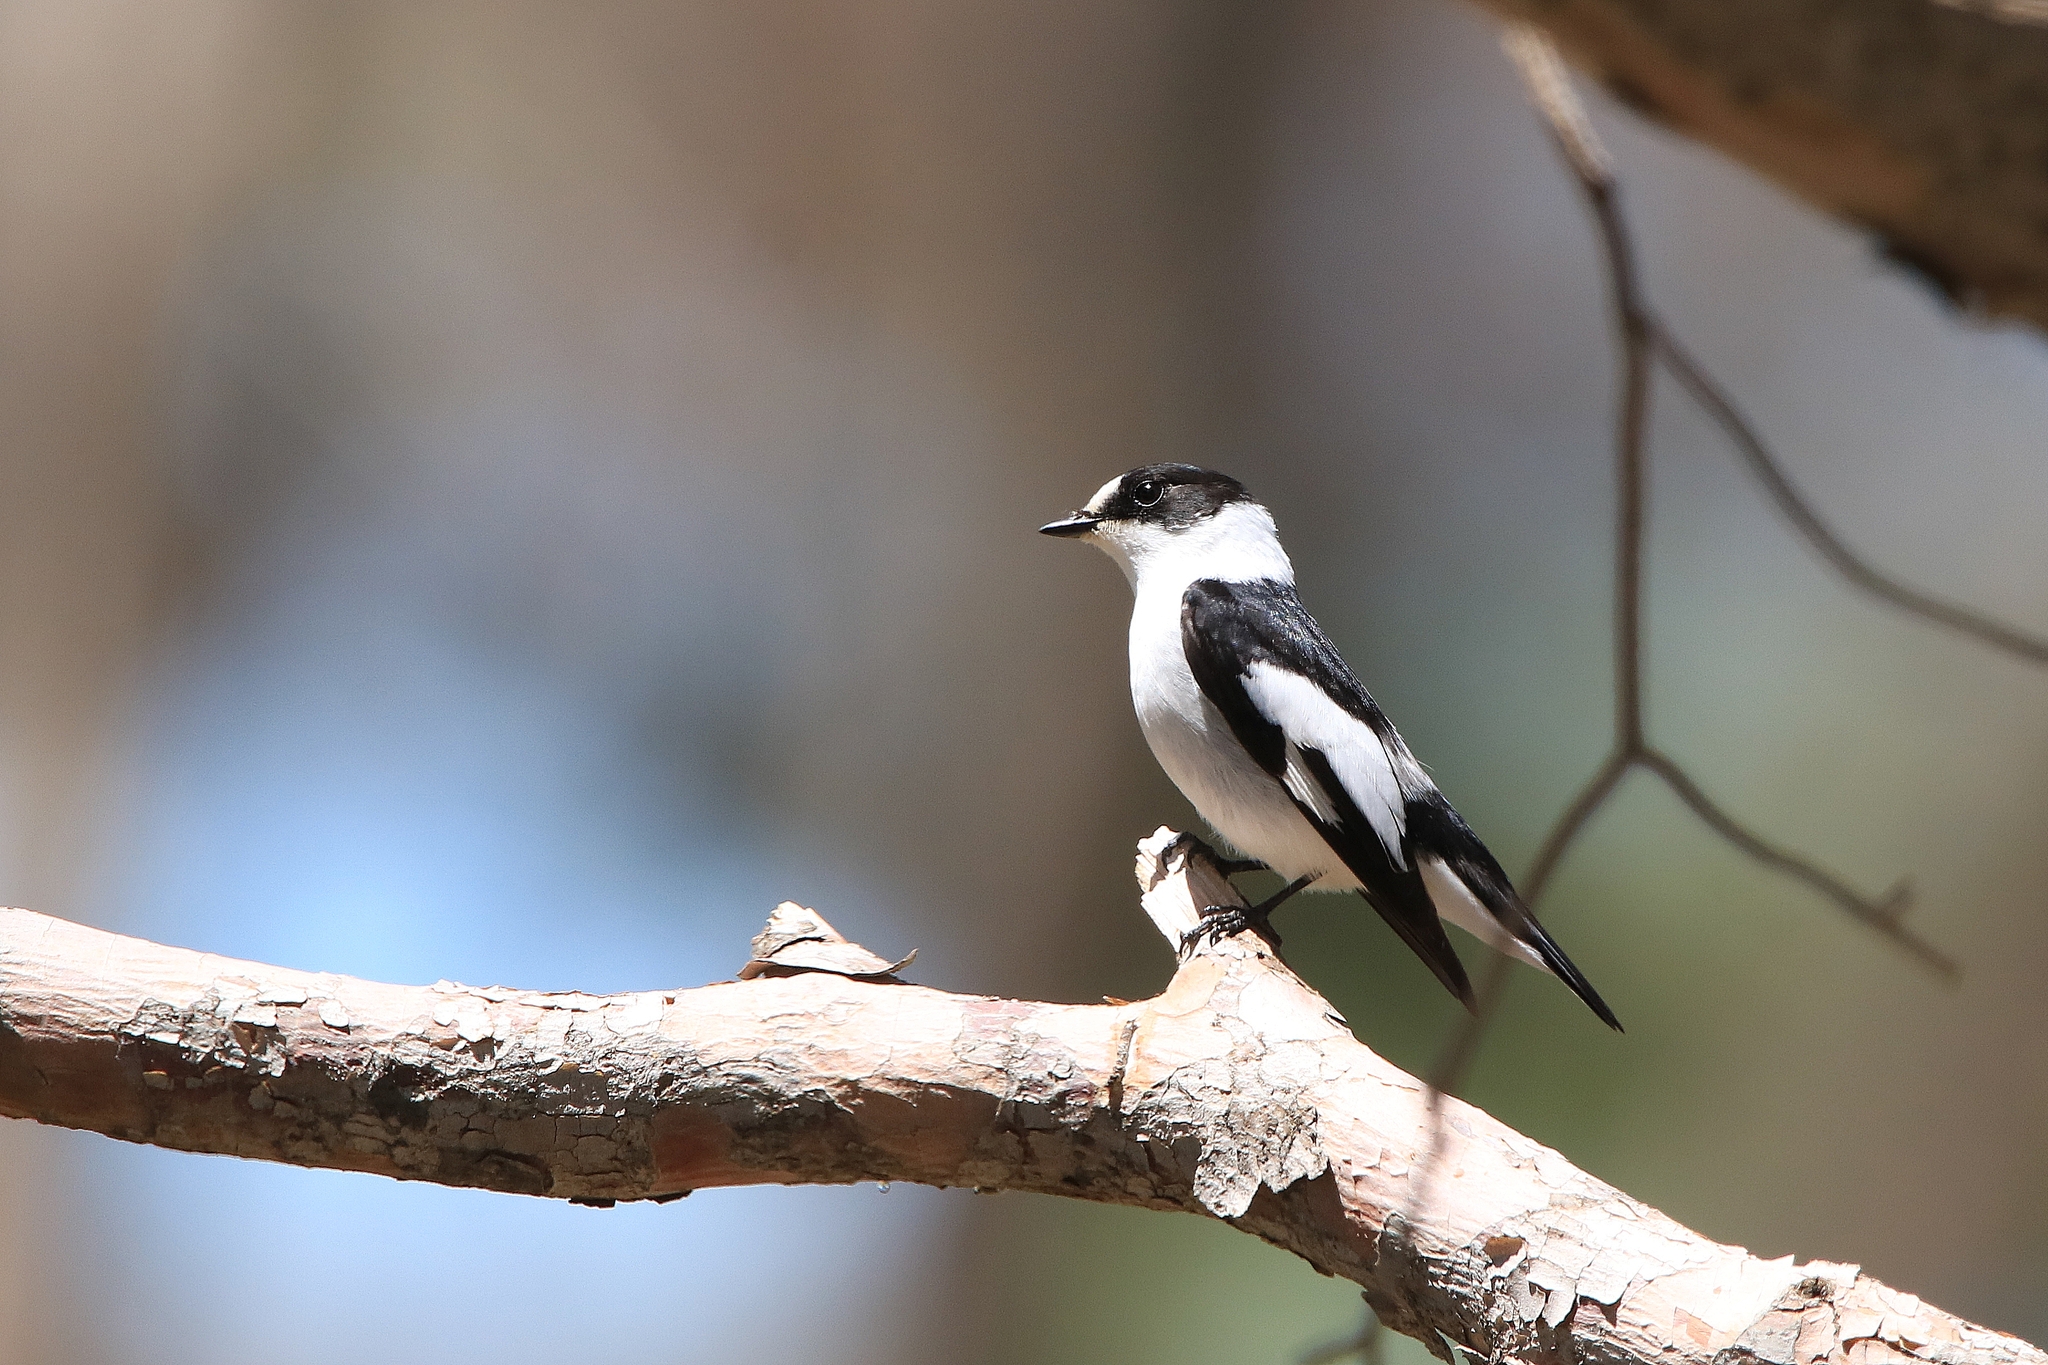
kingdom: Animalia
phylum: Chordata
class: Aves
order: Passeriformes
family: Muscicapidae
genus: Ficedula
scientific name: Ficedula albicollis
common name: Collared flycatcher
